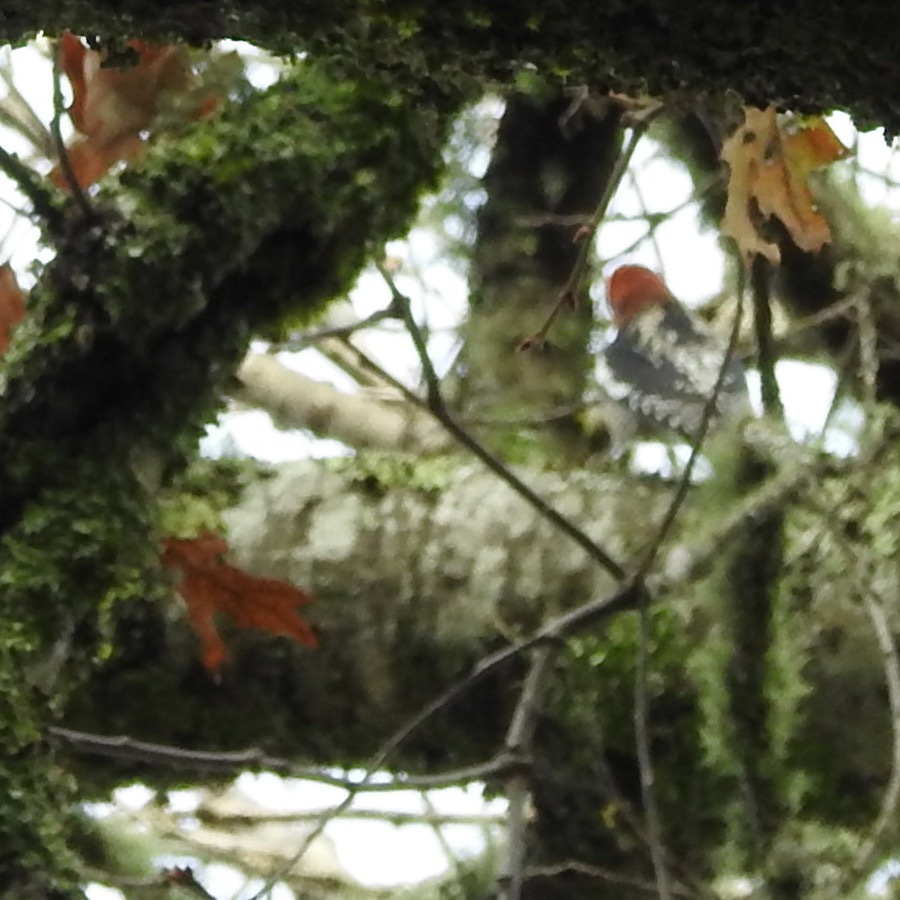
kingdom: Animalia
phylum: Chordata
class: Aves
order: Piciformes
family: Picidae
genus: Sphyrapicus
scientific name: Sphyrapicus ruber
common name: Red-breasted sapsucker
